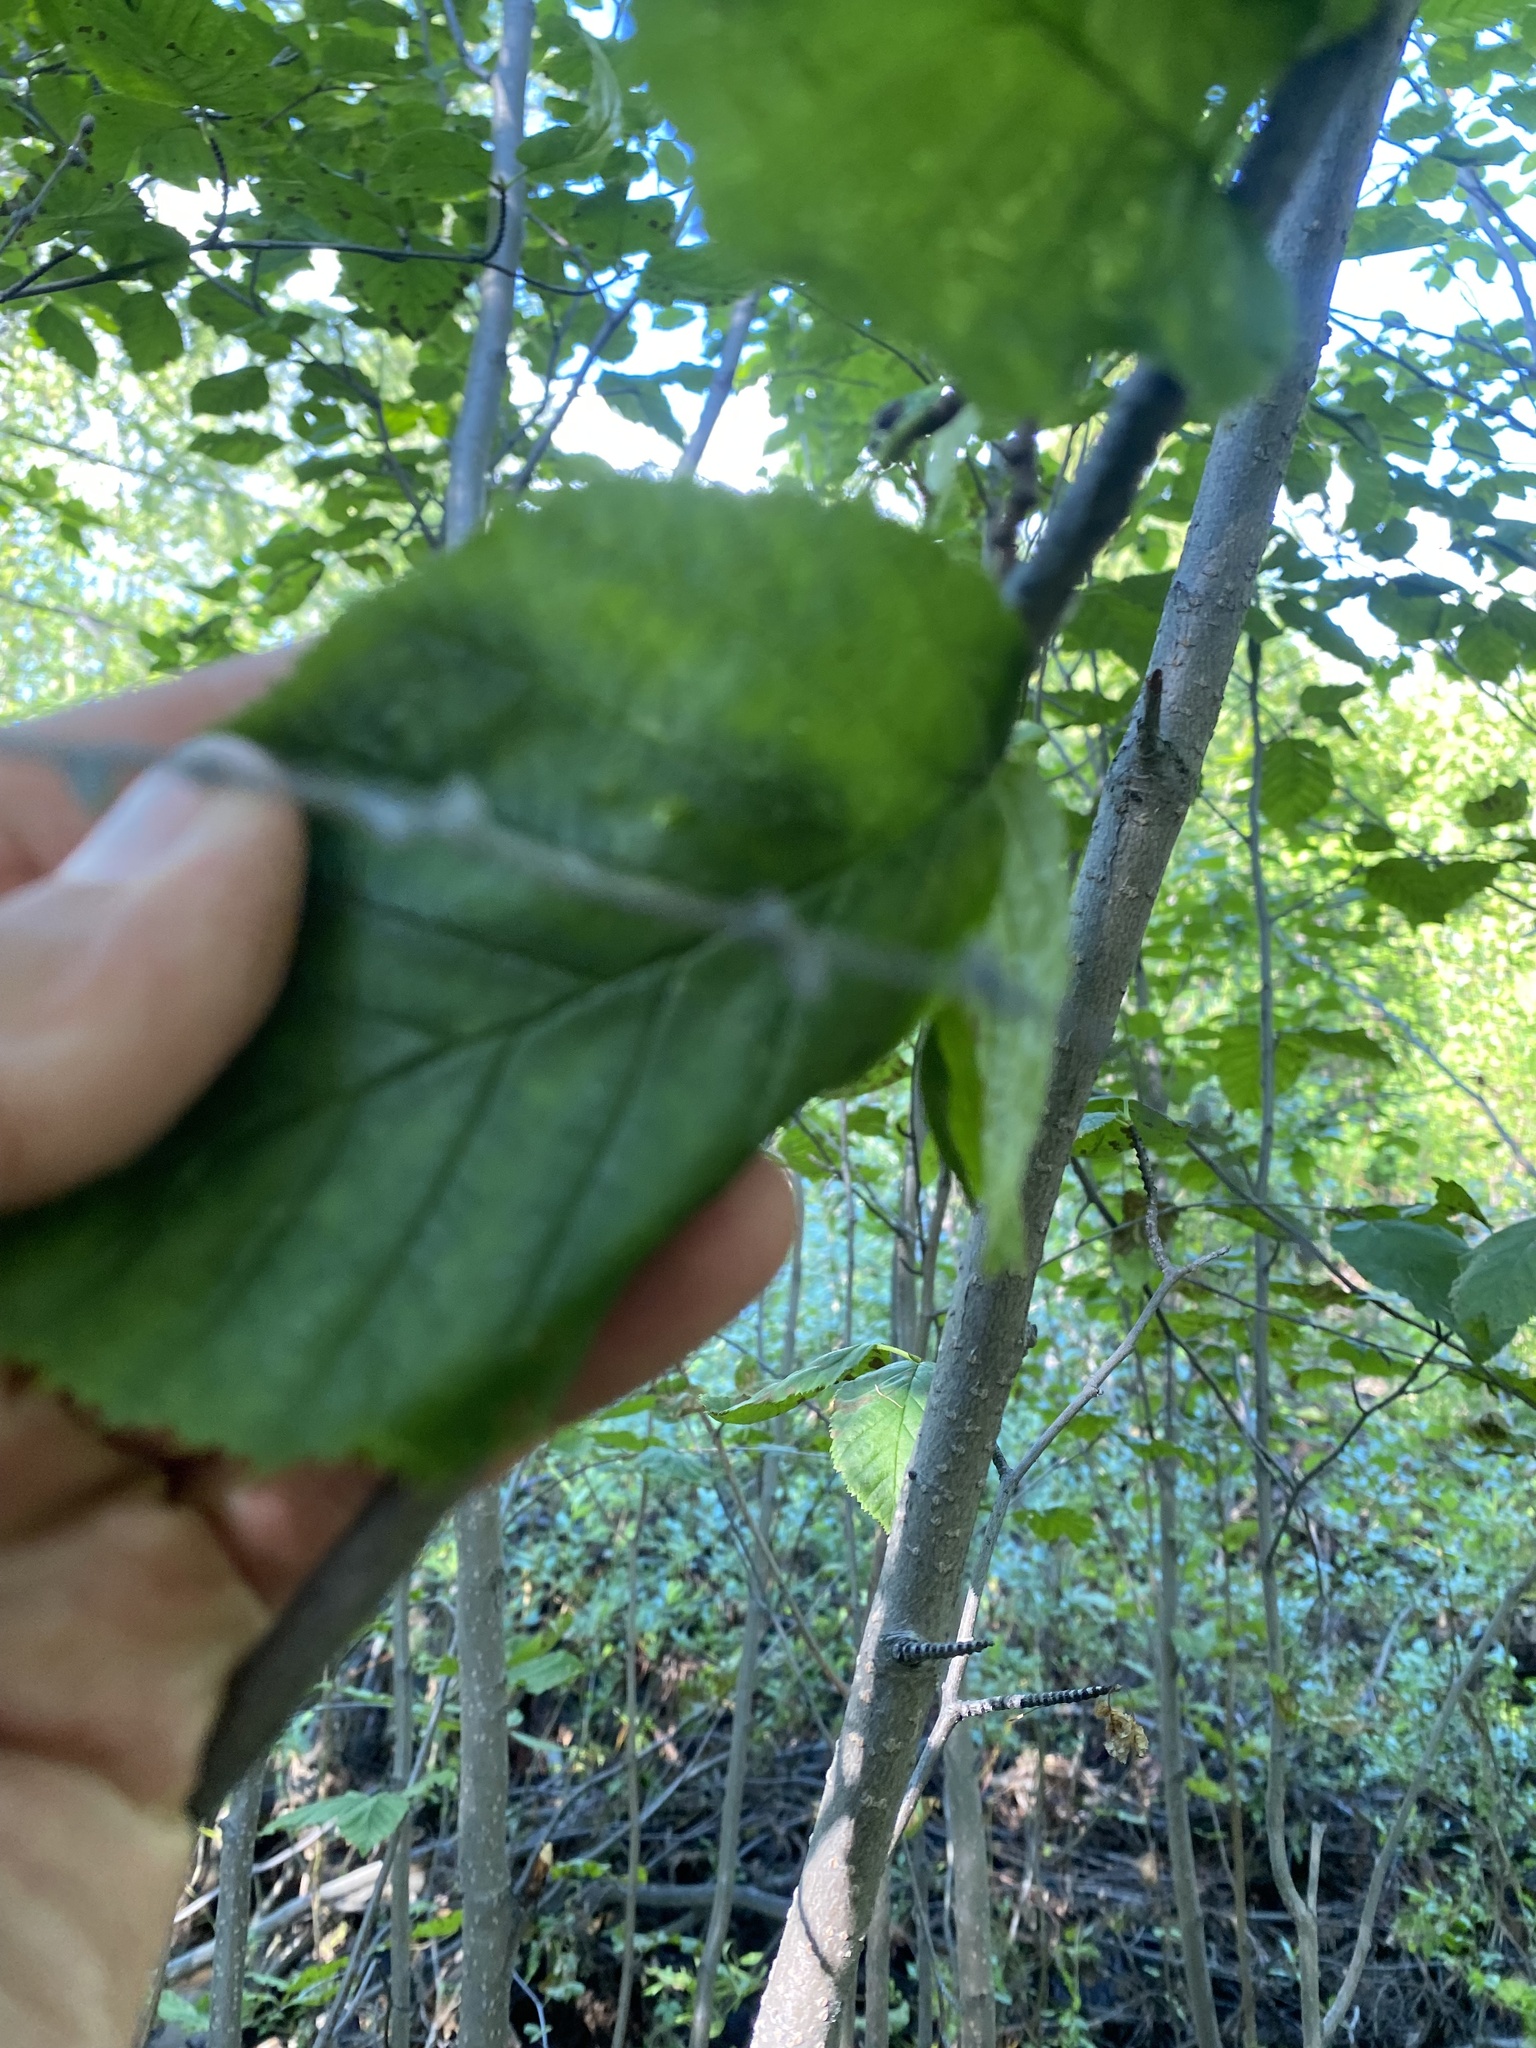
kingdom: Plantae
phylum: Tracheophyta
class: Magnoliopsida
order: Fagales
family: Betulaceae
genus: Alnus
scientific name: Alnus alnobetula
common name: Green alder
